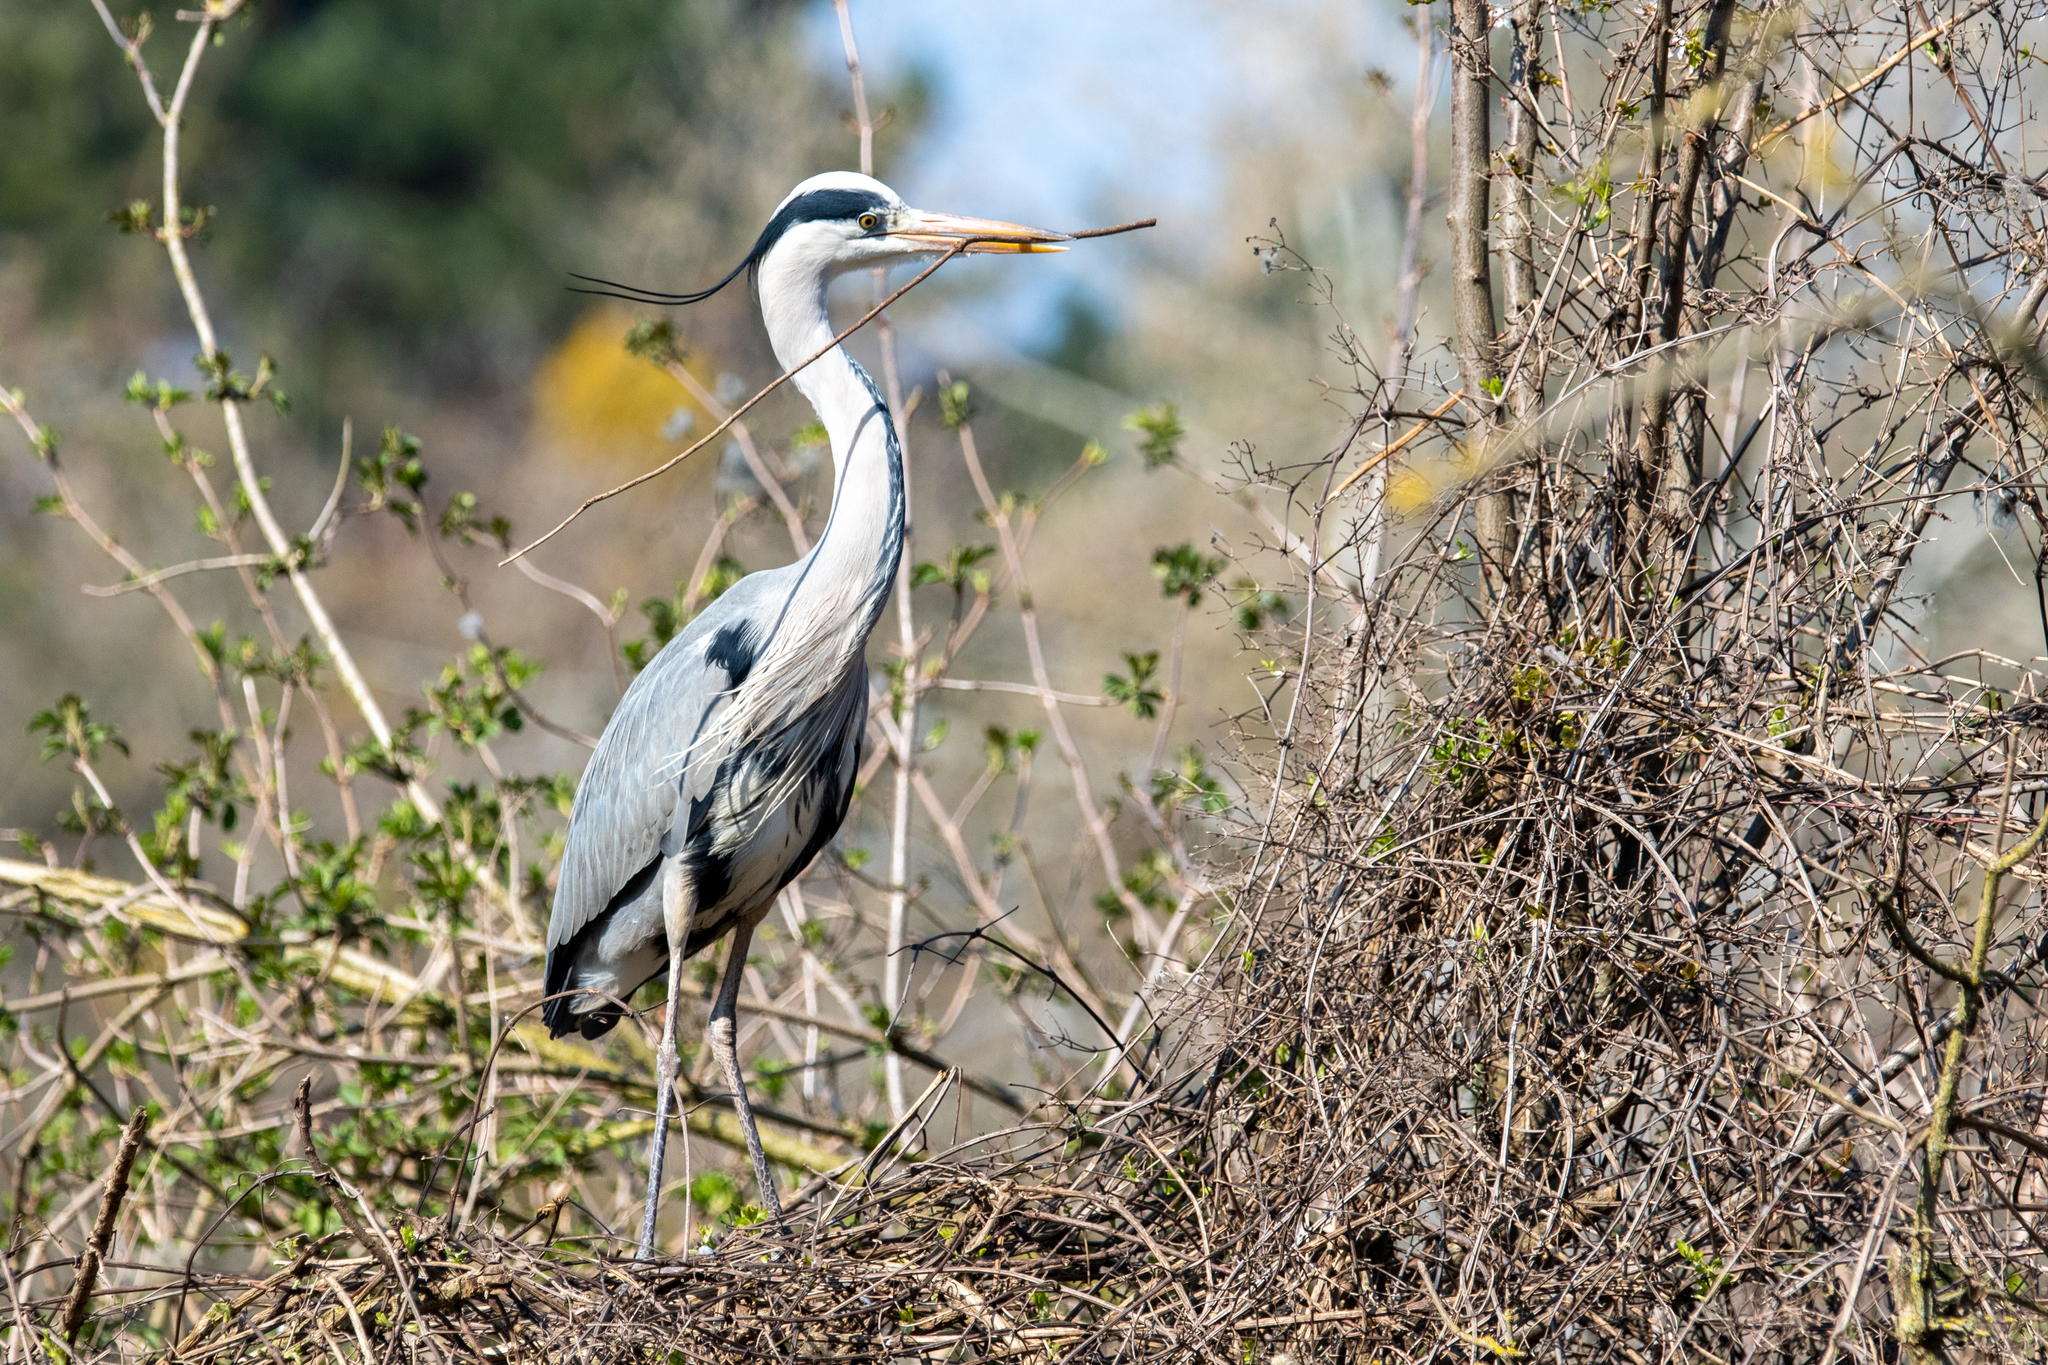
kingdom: Animalia
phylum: Chordata
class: Aves
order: Pelecaniformes
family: Ardeidae
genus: Ardea
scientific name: Ardea cinerea
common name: Grey heron
